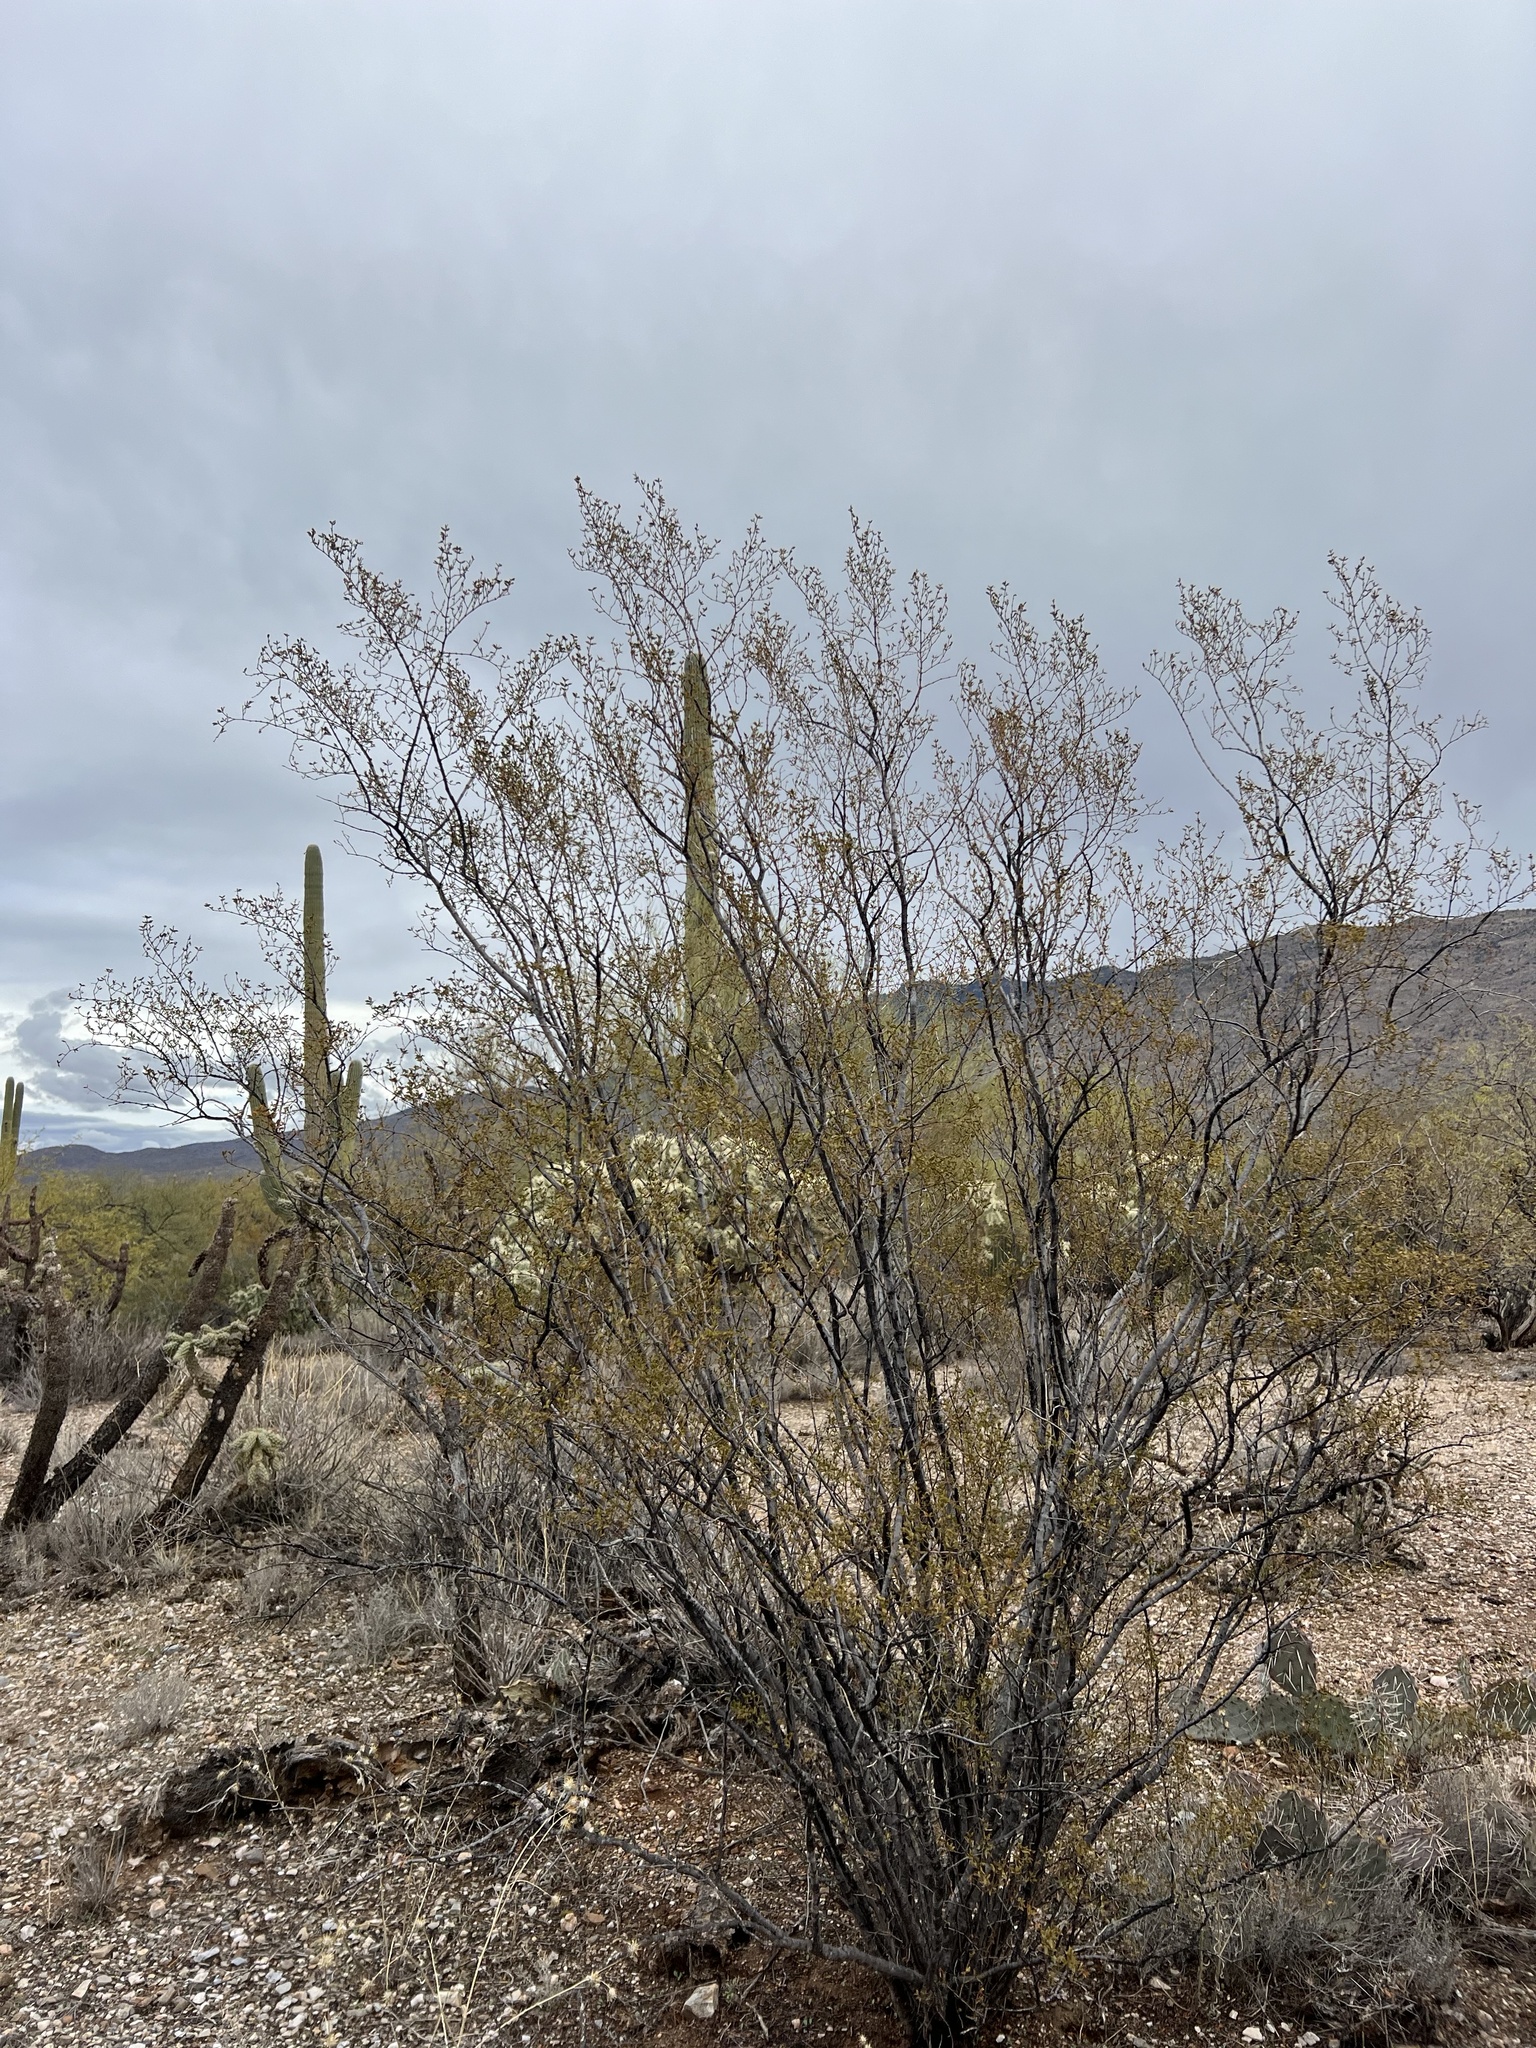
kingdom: Plantae
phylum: Tracheophyta
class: Magnoliopsida
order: Zygophyllales
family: Zygophyllaceae
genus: Larrea
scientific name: Larrea tridentata
